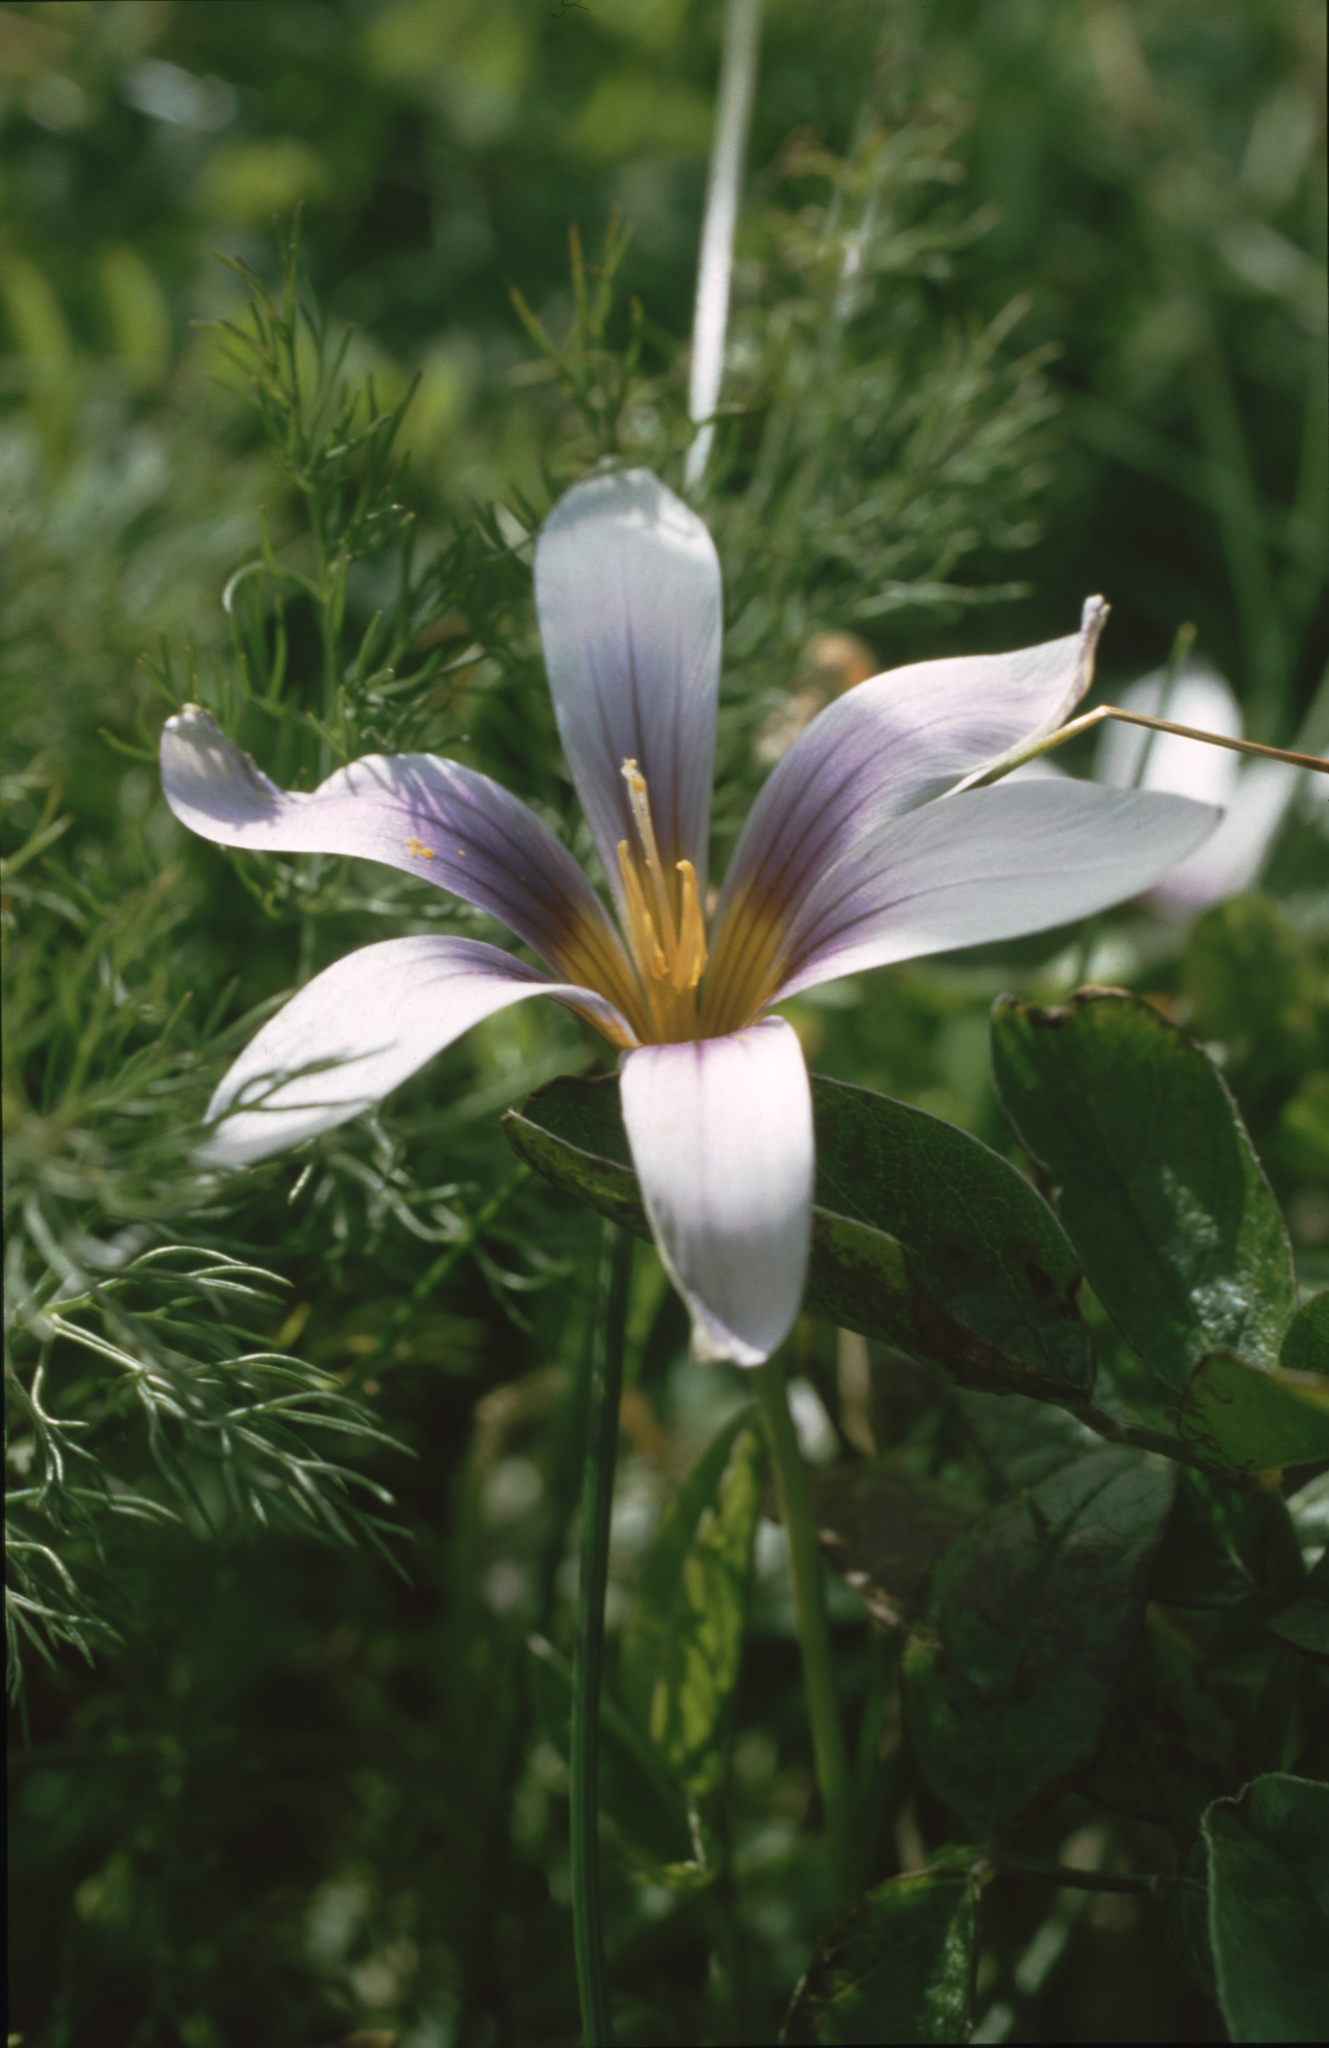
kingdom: Plantae
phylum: Tracheophyta
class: Liliopsida
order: Asparagales
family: Iridaceae
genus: Romulea
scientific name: Romulea columnae
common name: Sand-crocus
